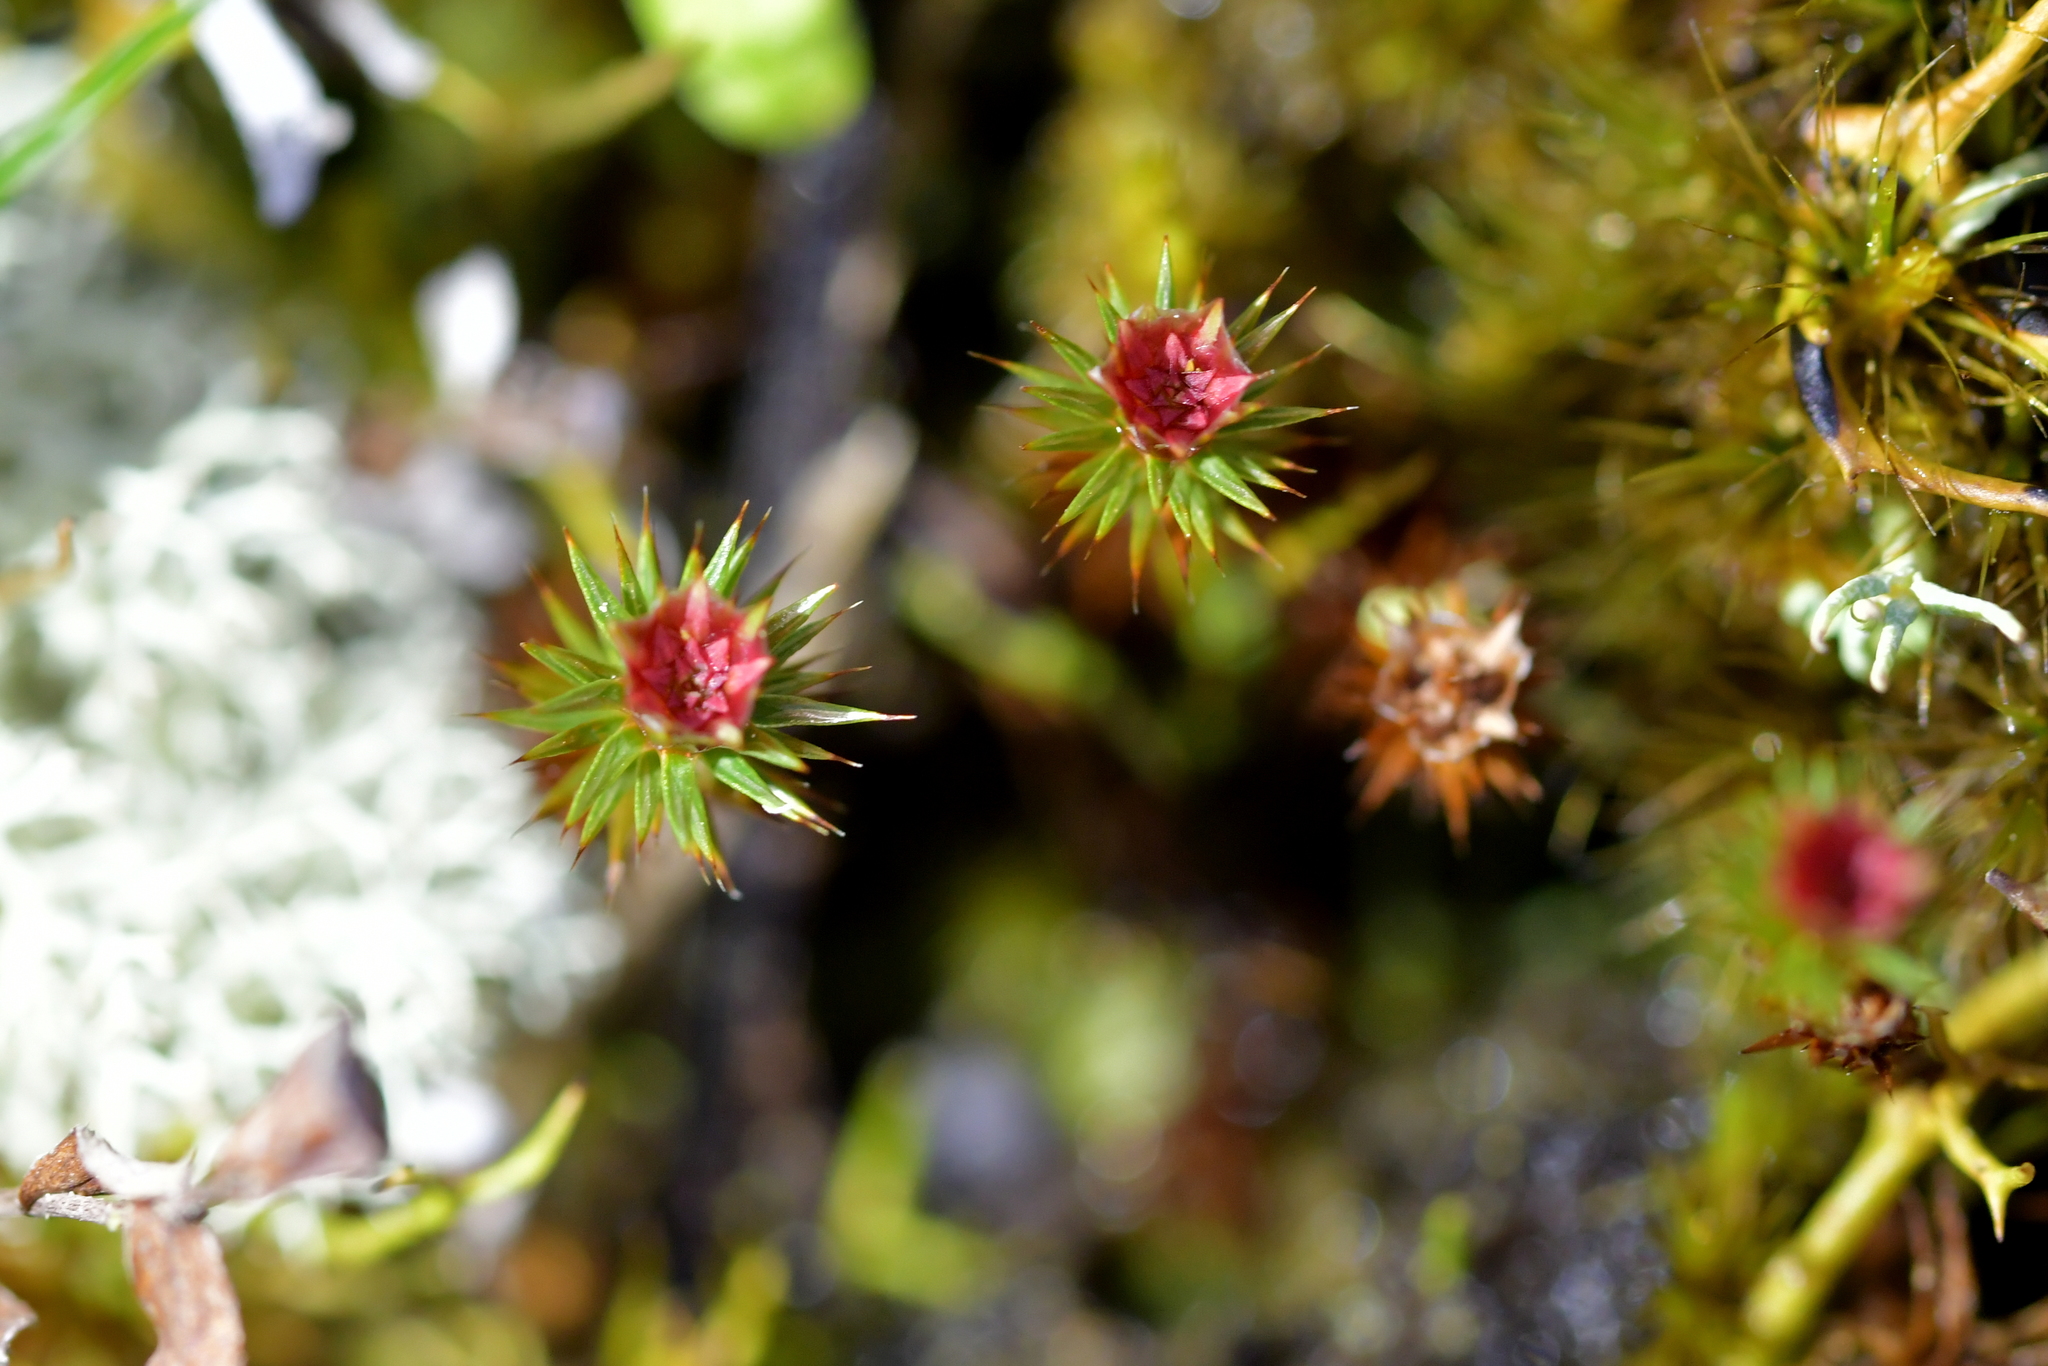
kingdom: Plantae
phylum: Bryophyta
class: Polytrichopsida
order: Polytrichales
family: Polytrichaceae
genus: Polytrichum
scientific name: Polytrichum juniperinum
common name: Juniper haircap moss
